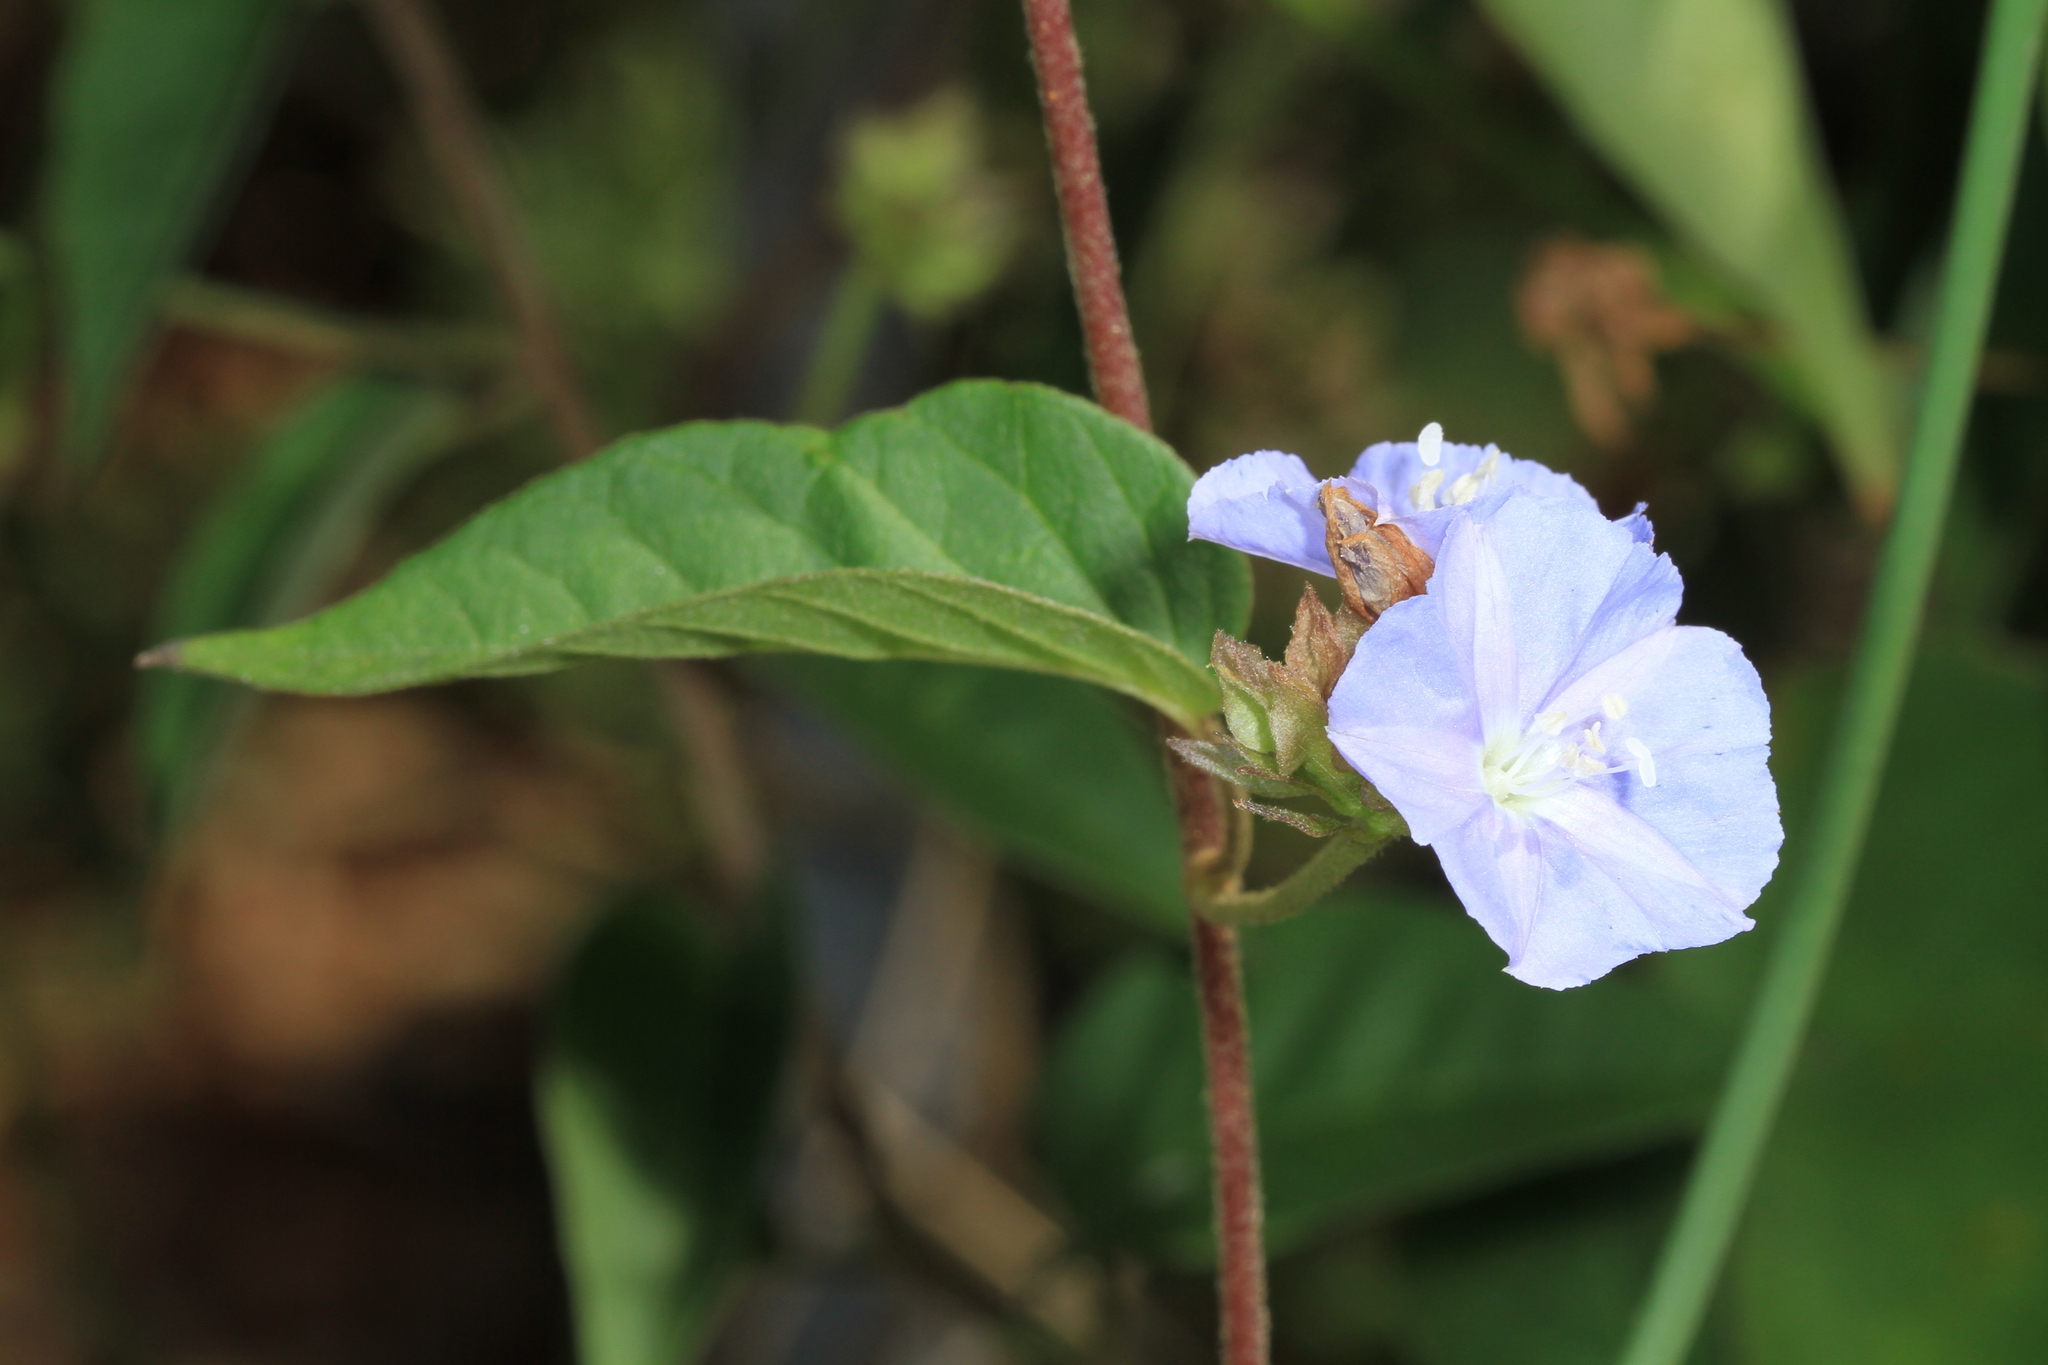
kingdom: Plantae
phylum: Tracheophyta
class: Magnoliopsida
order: Solanales
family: Convolvulaceae
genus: Jacquemontia
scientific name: Jacquemontia pentanthos
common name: Skyblue clustervine
